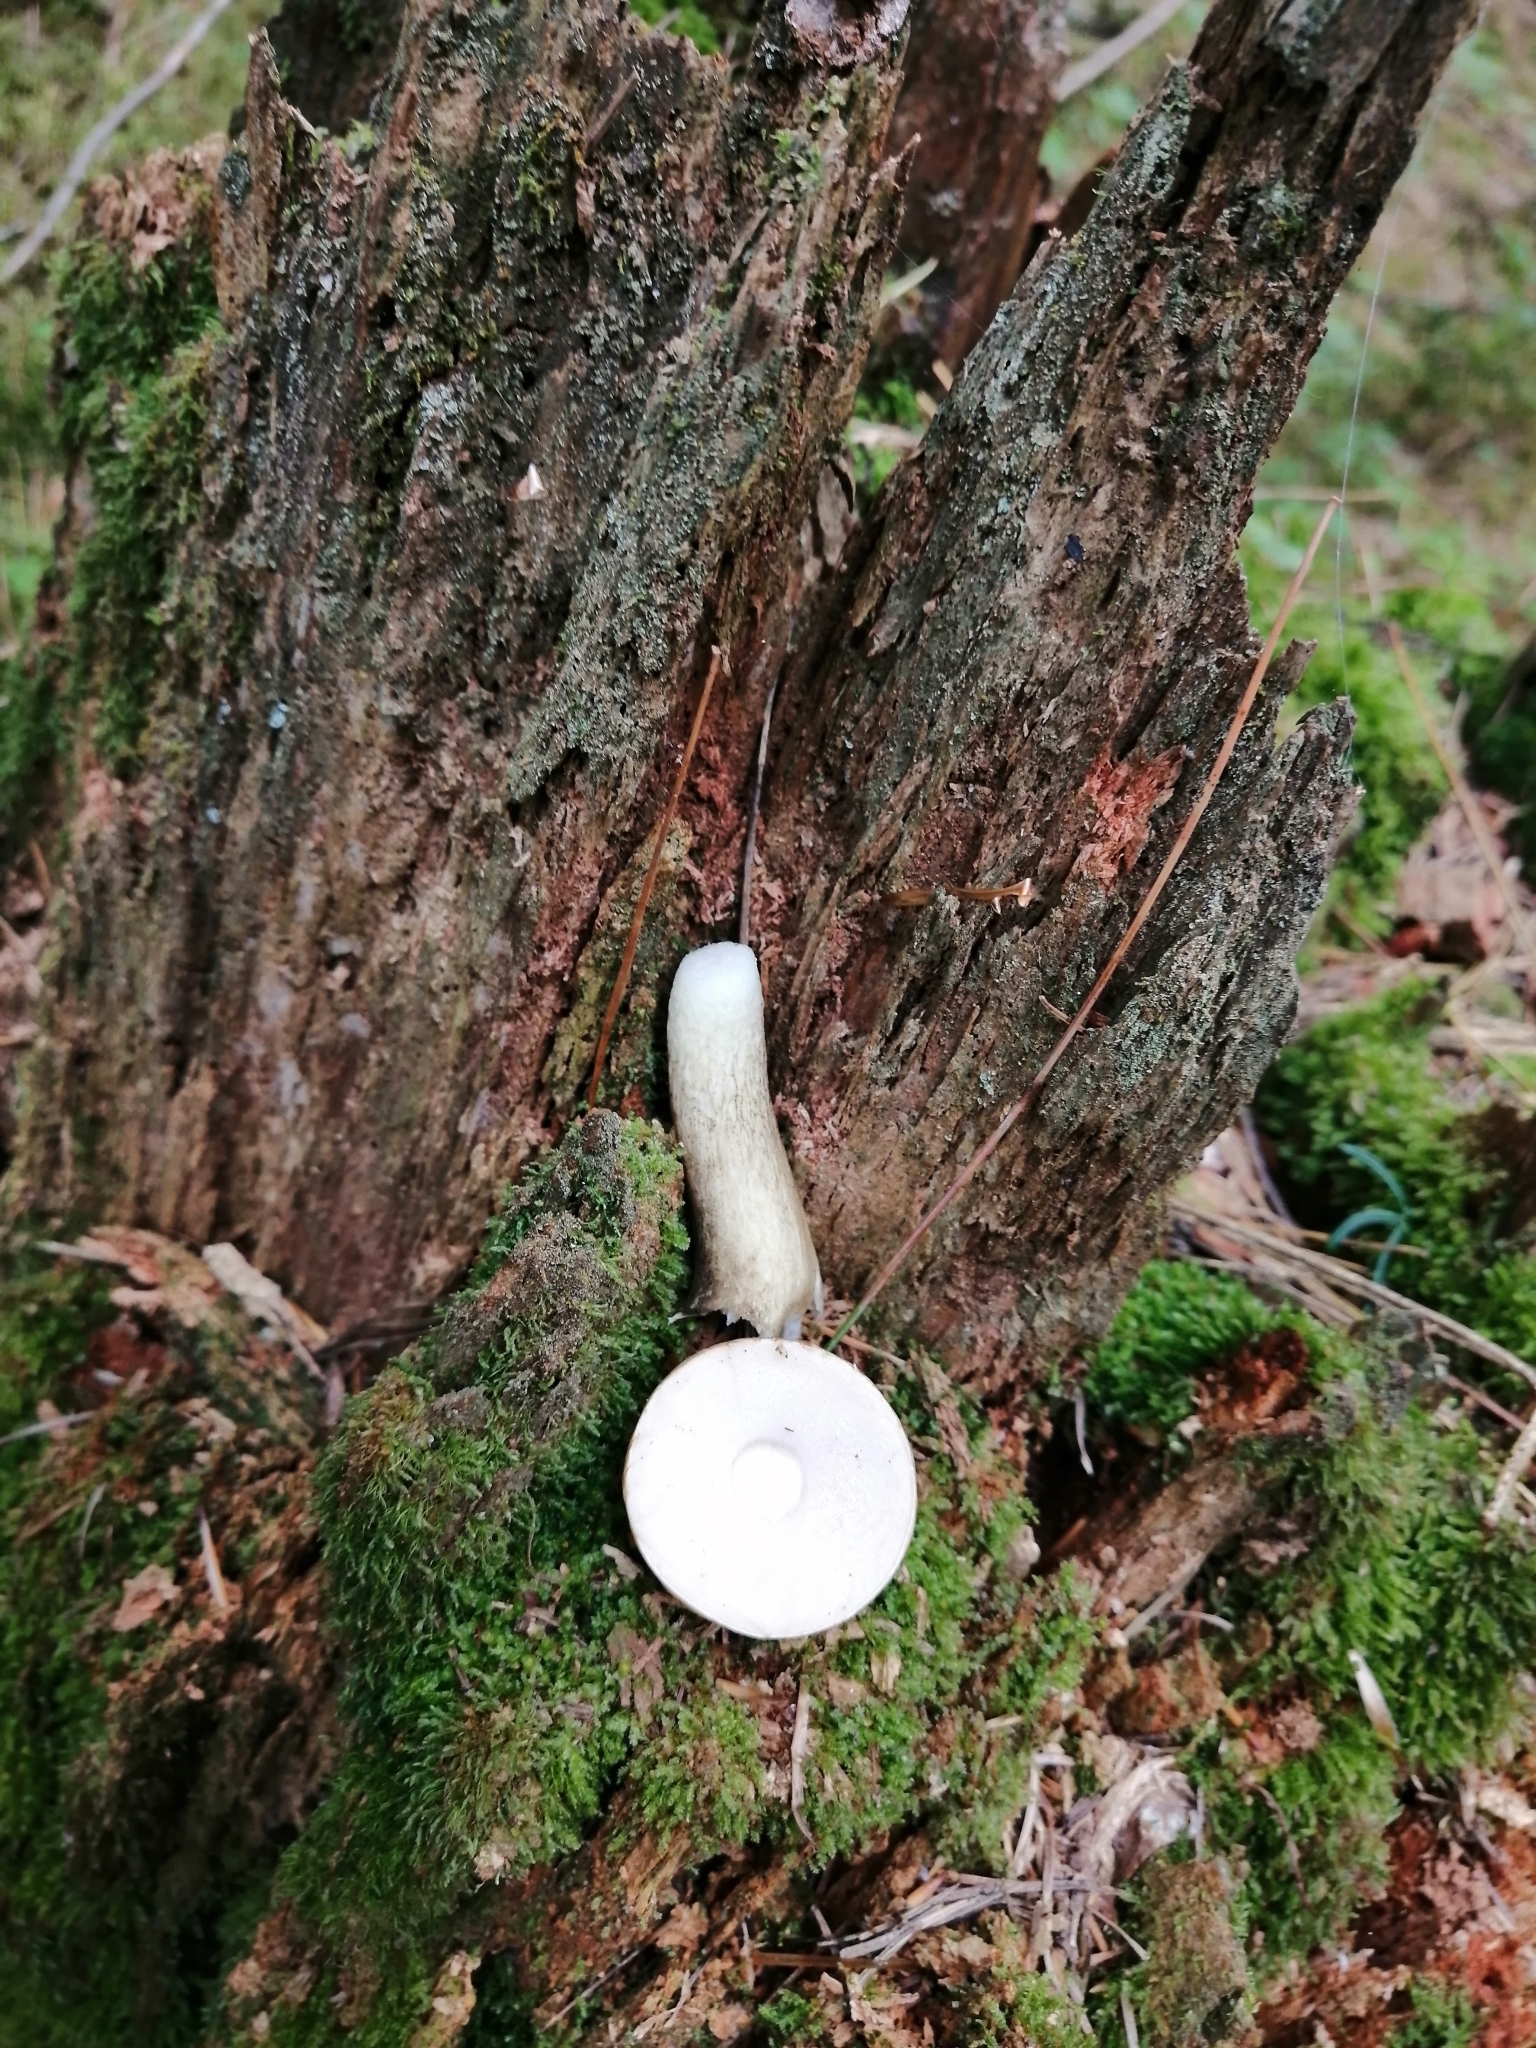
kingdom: Fungi
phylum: Basidiomycota
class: Agaricomycetes
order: Boletales
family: Boletaceae
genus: Tylopilus
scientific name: Tylopilus felleus
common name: Bitter bolete
